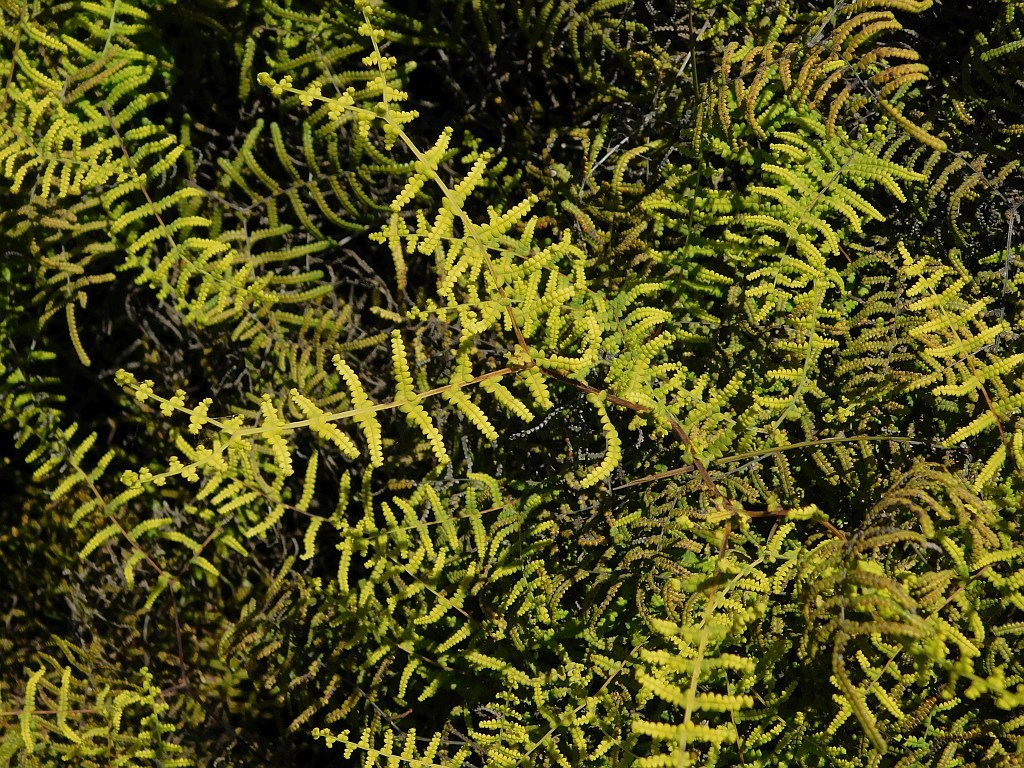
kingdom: Plantae
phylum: Tracheophyta
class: Polypodiopsida
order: Gleicheniales
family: Gleicheniaceae
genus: Gleichenia
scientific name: Gleichenia polypodioides
